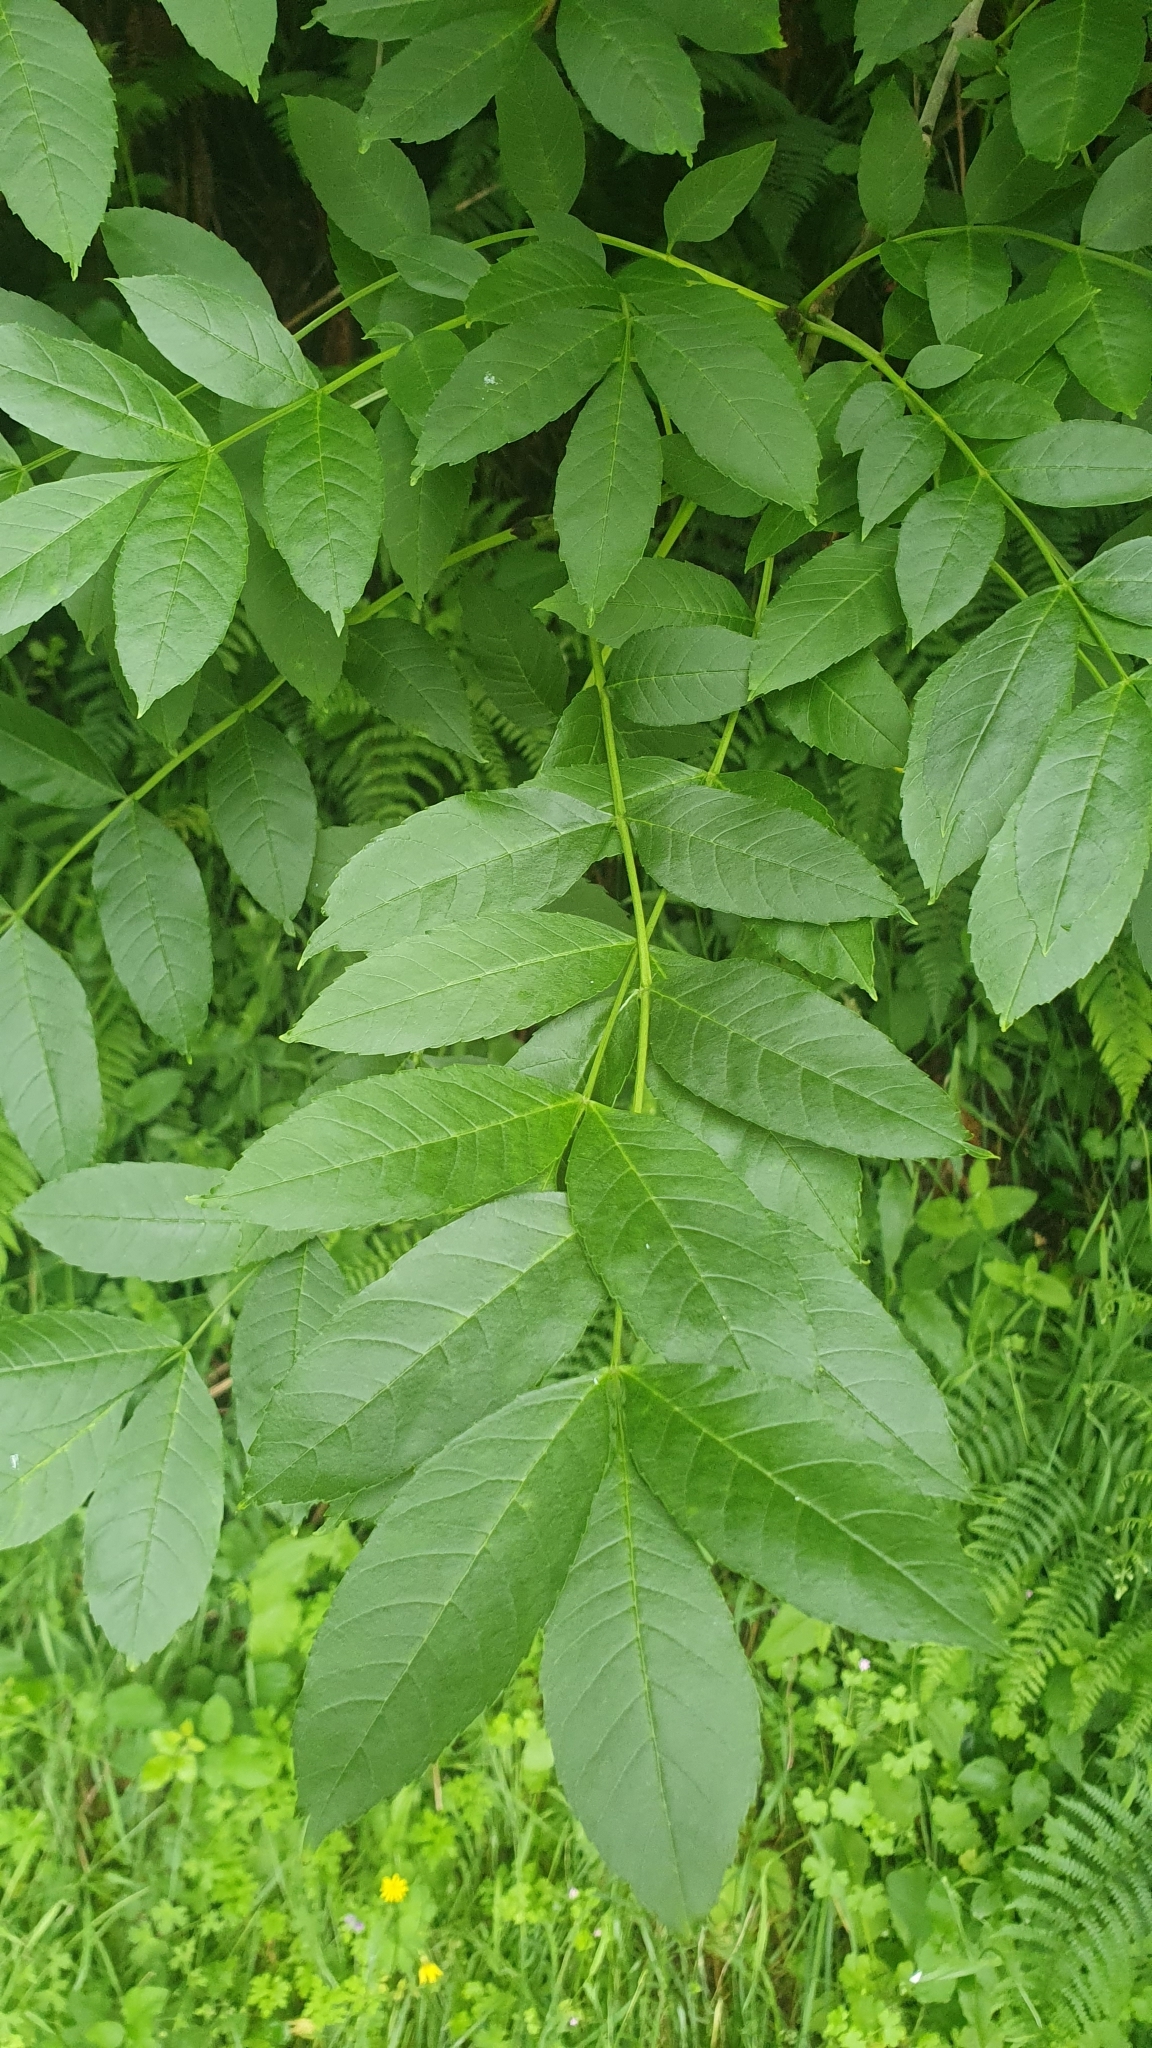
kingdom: Plantae
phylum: Tracheophyta
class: Magnoliopsida
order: Lamiales
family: Oleaceae
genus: Fraxinus
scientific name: Fraxinus excelsior
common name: European ash
